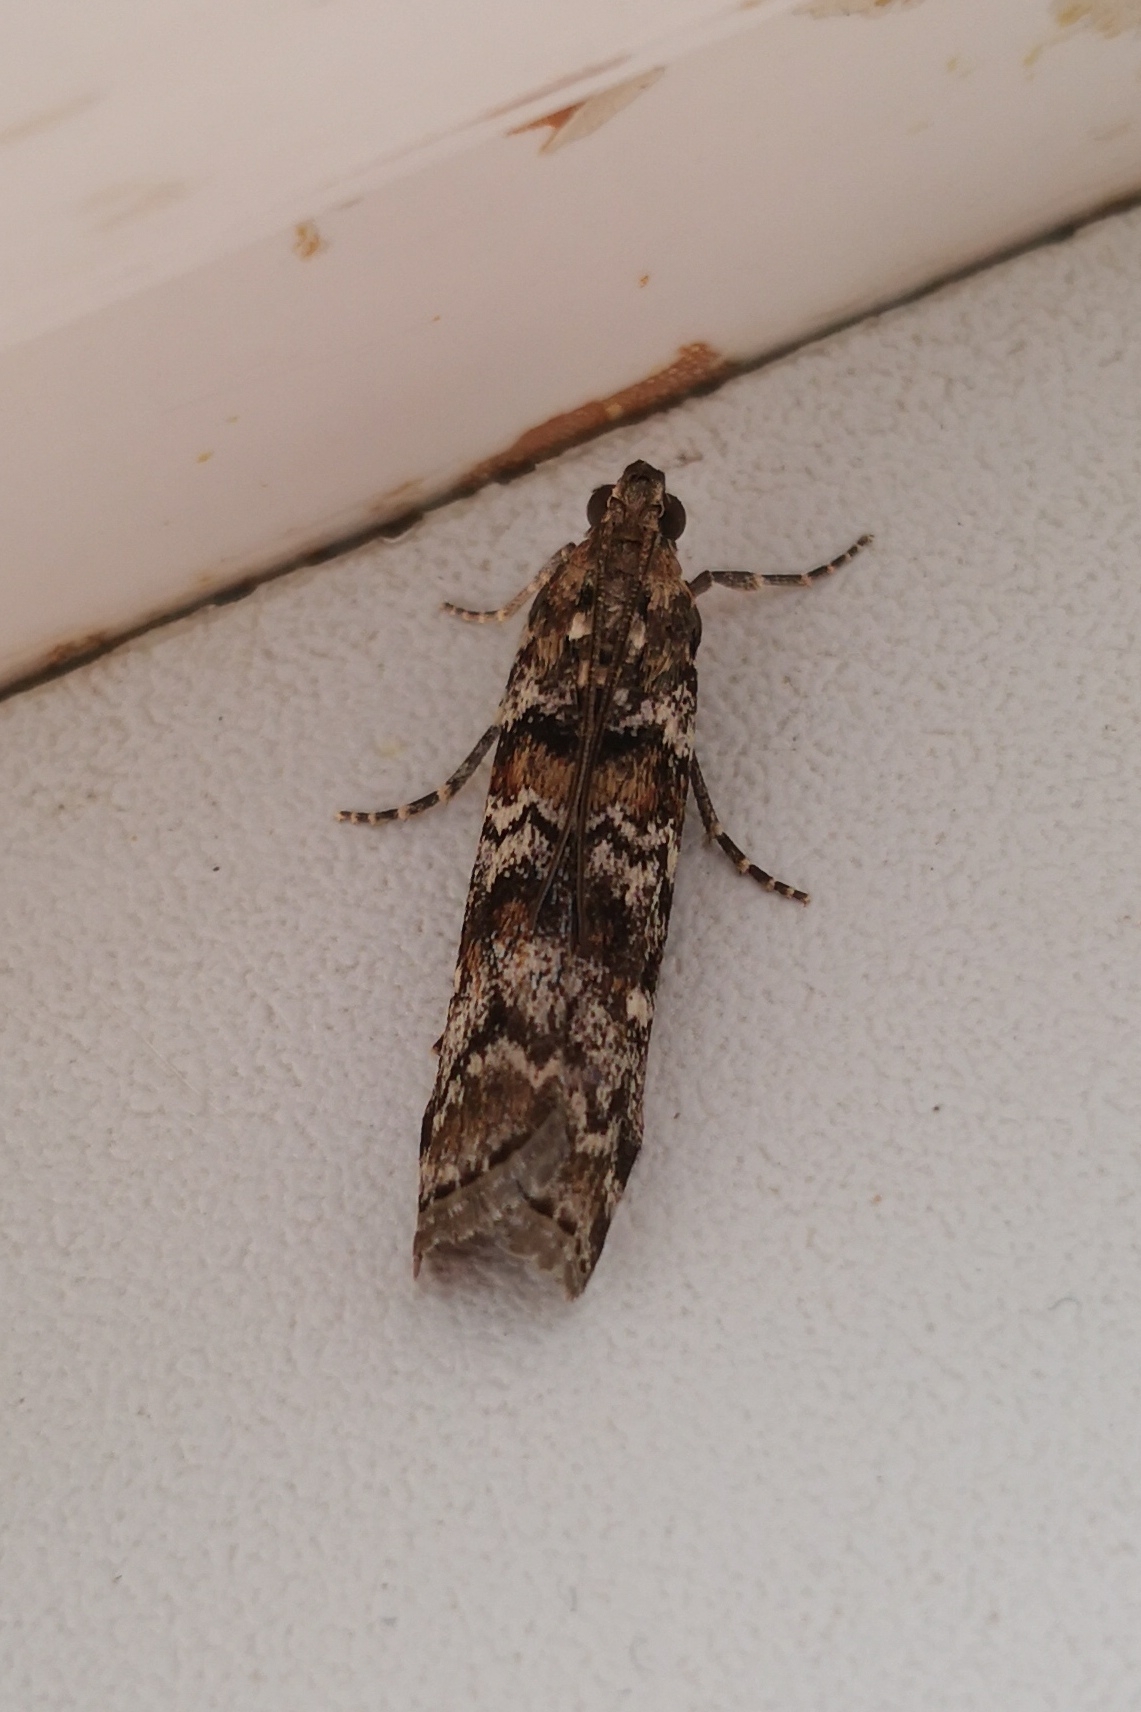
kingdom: Animalia
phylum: Arthropoda
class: Insecta
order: Lepidoptera
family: Pyralidae
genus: Dioryctria
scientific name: Dioryctria abietella
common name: Dark pine knot-horn
